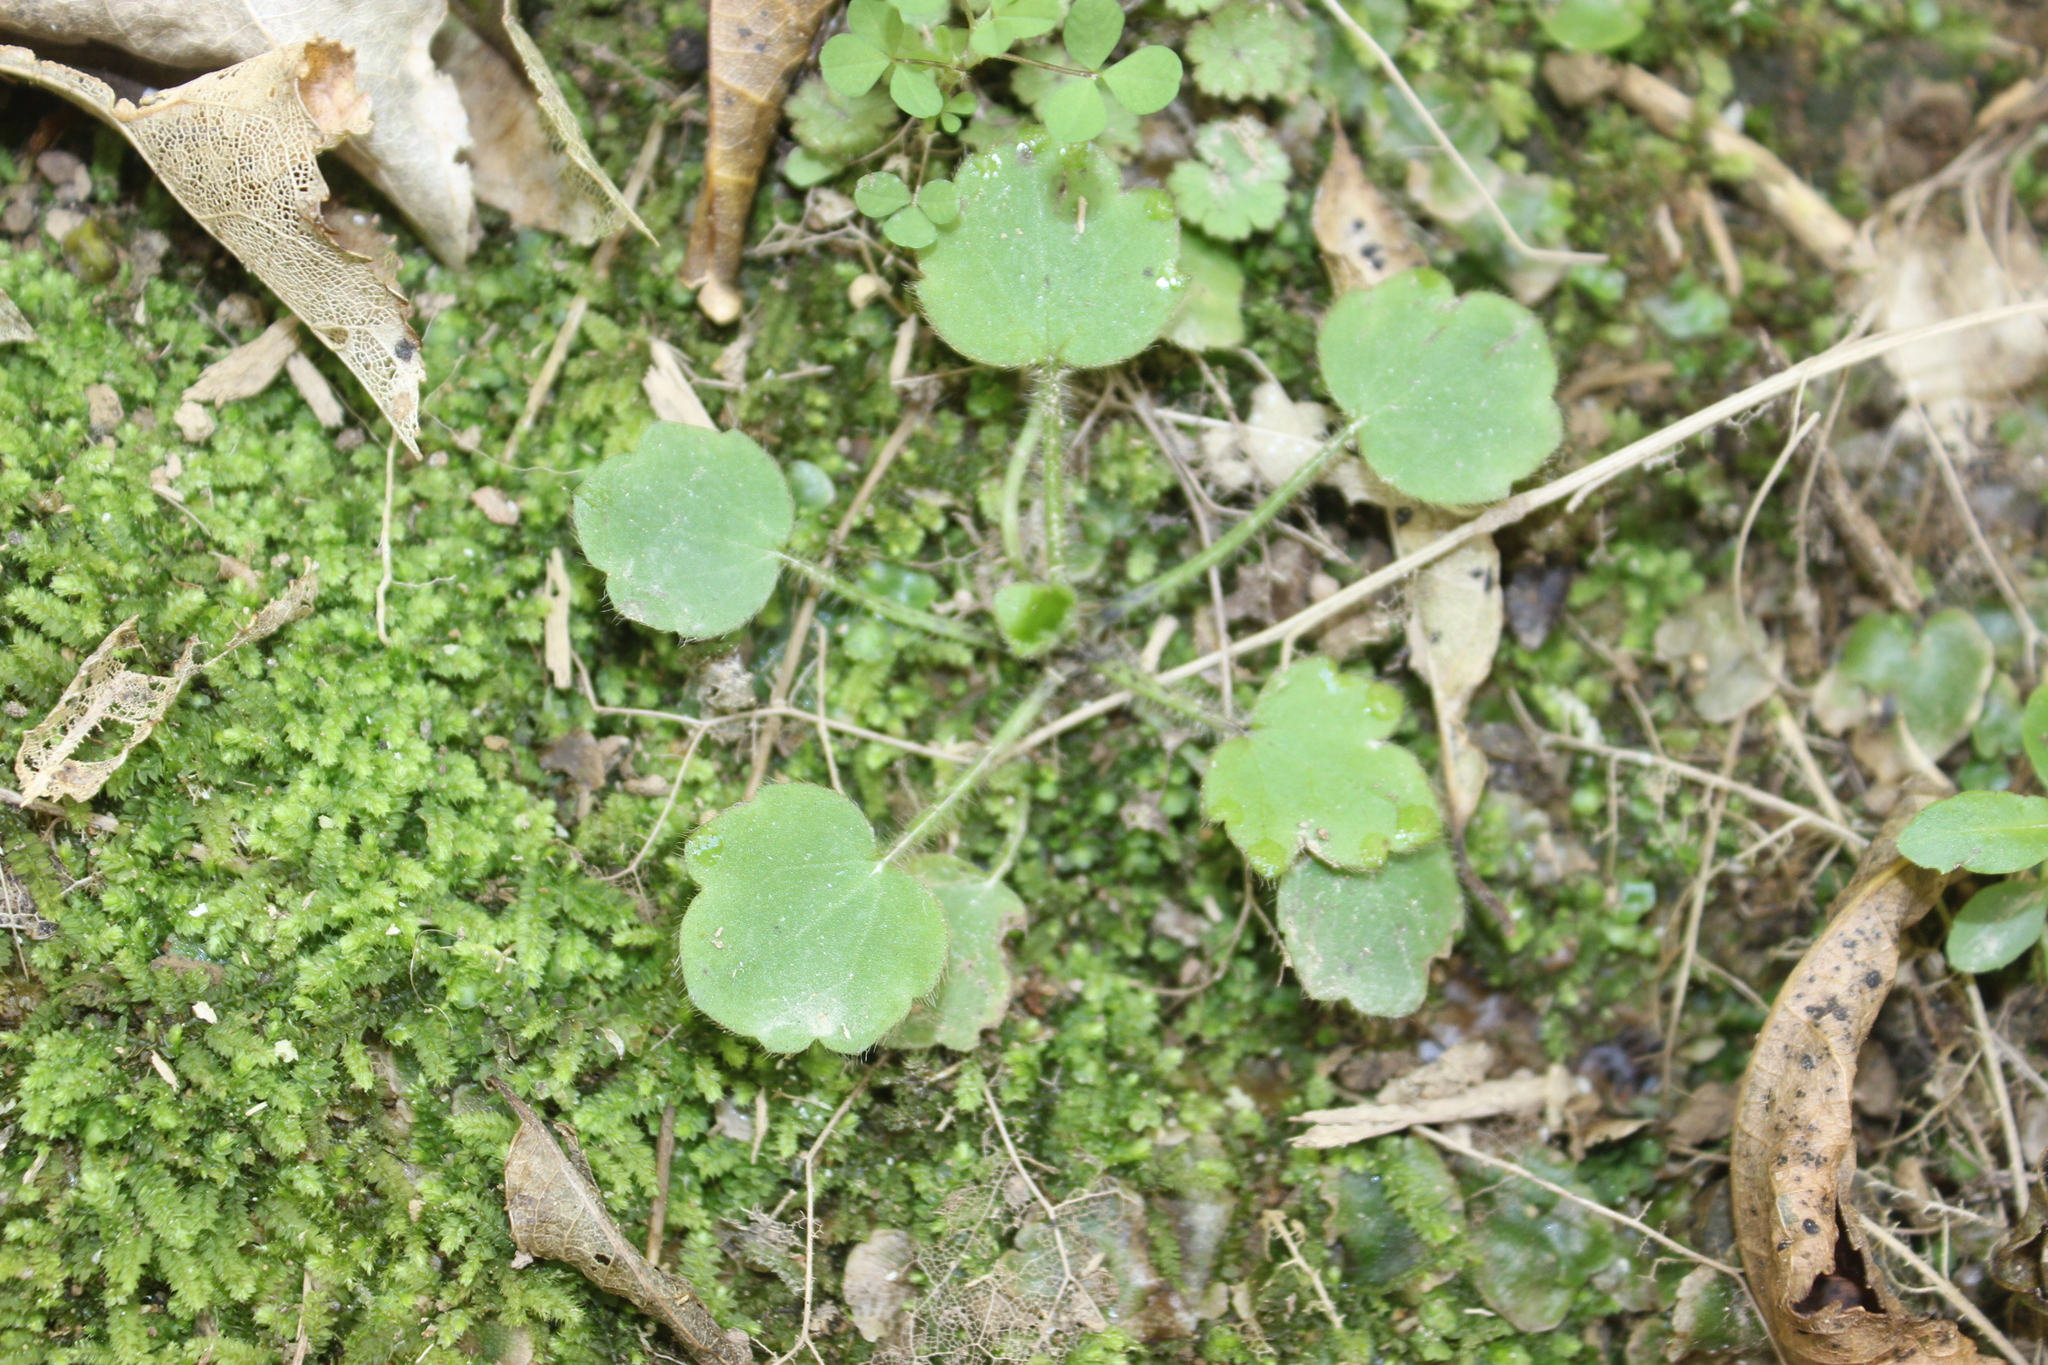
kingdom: Plantae
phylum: Tracheophyta
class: Magnoliopsida
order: Ranunculales
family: Ranunculaceae
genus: Ranunculus
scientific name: Ranunculus reflexus
